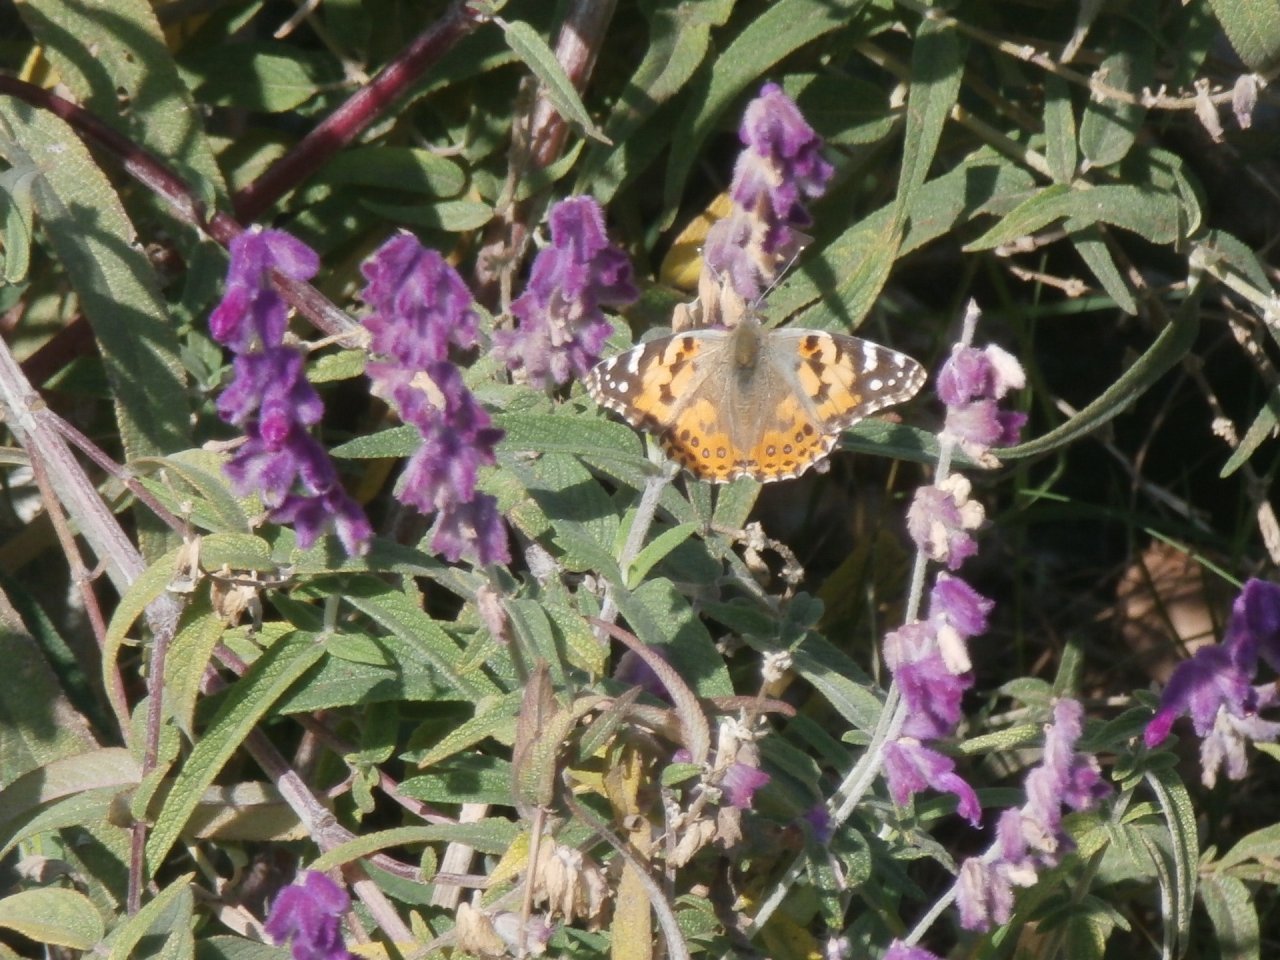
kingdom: Animalia
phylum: Arthropoda
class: Insecta
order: Lepidoptera
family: Nymphalidae
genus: Vanessa
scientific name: Vanessa cardui
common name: Painted lady
